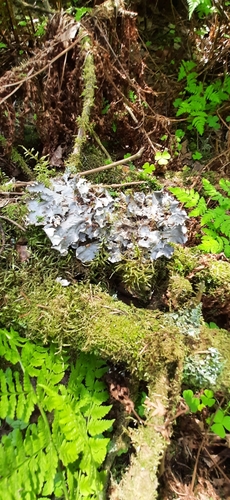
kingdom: Fungi
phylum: Ascomycota
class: Lecanoromycetes
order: Peltigerales
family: Peltigeraceae
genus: Peltigera
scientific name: Peltigera
